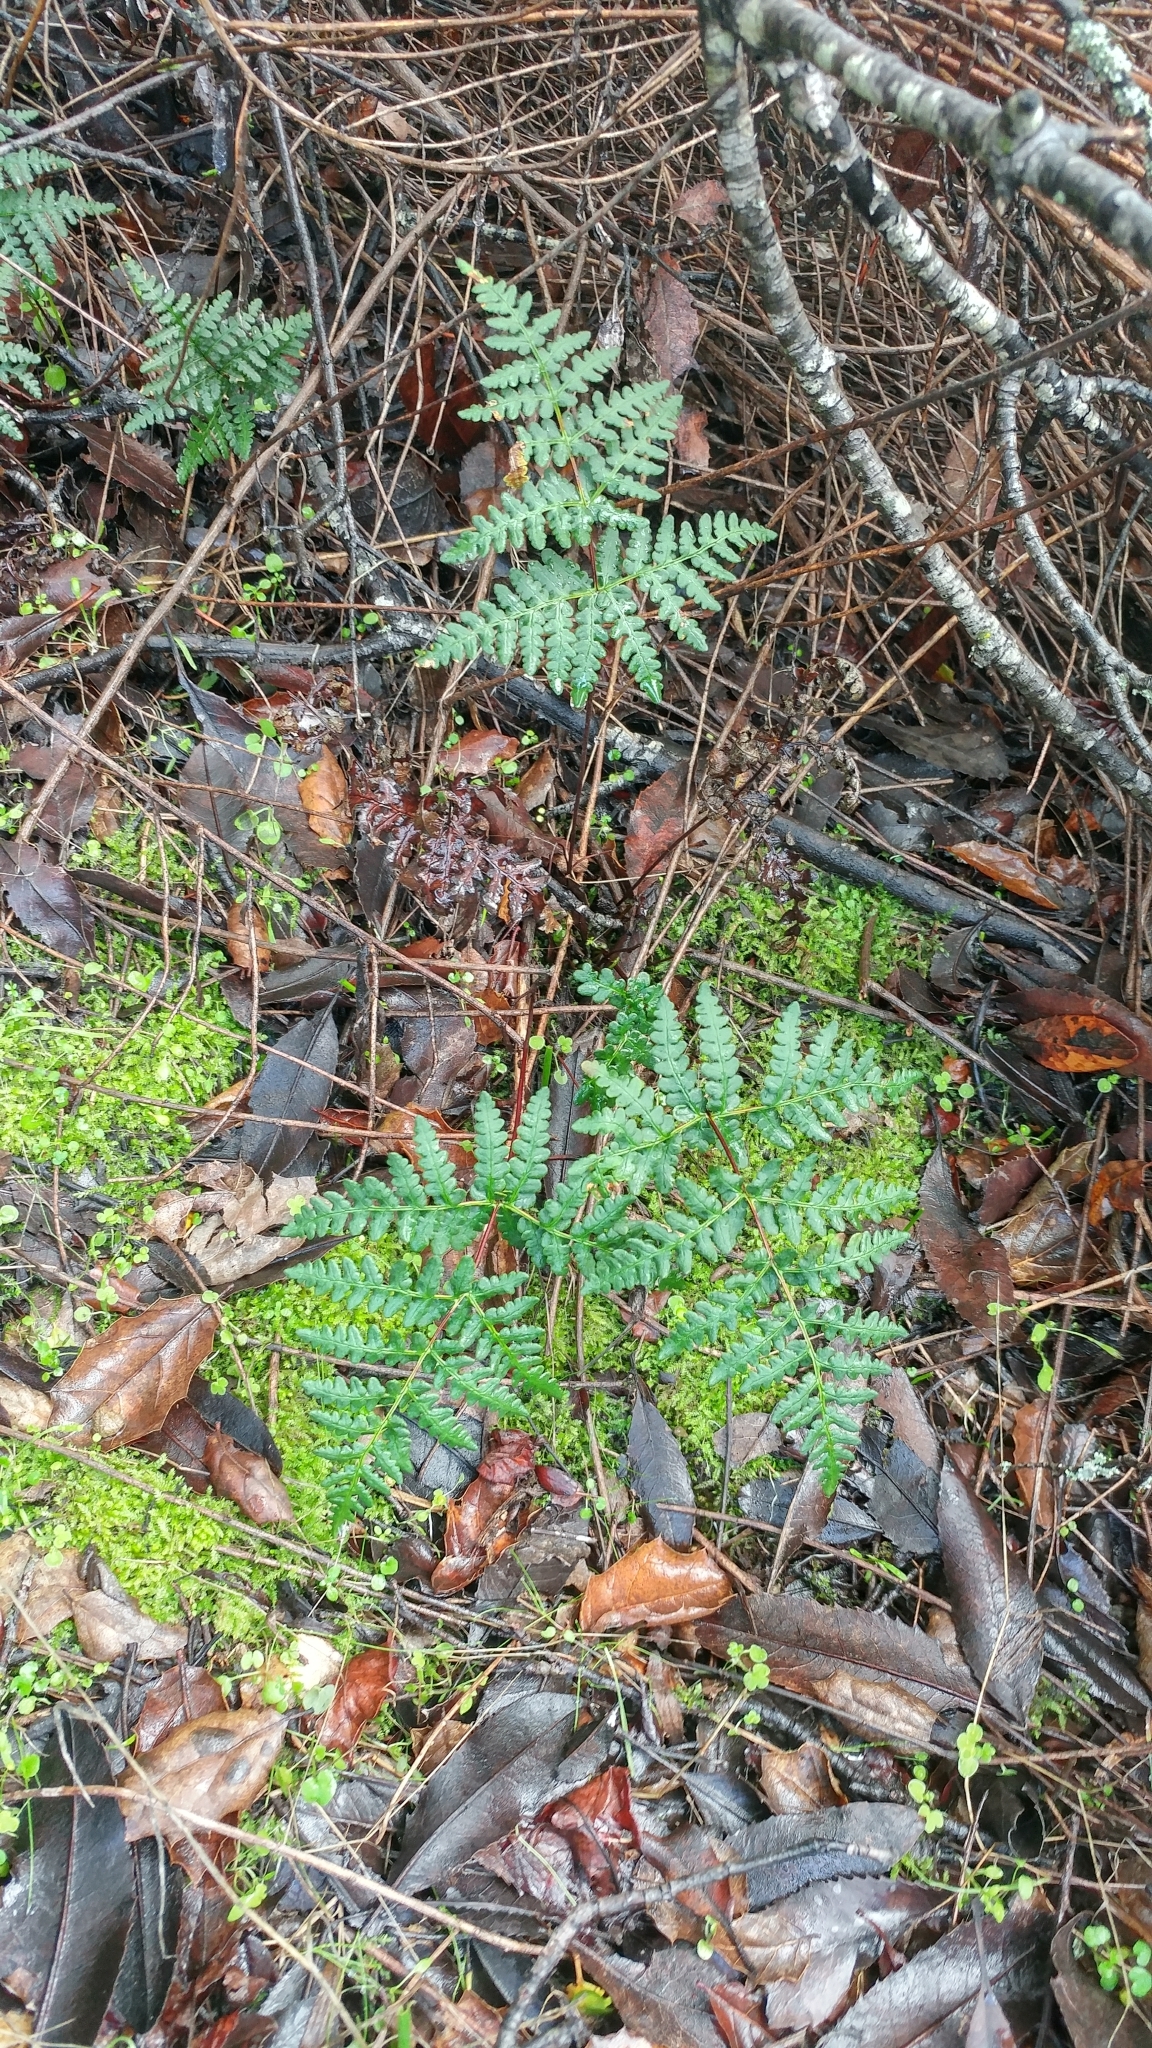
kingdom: Plantae
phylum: Tracheophyta
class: Polypodiopsida
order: Polypodiales
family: Pteridaceae
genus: Pentagramma
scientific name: Pentagramma triangularis
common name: Gold fern
